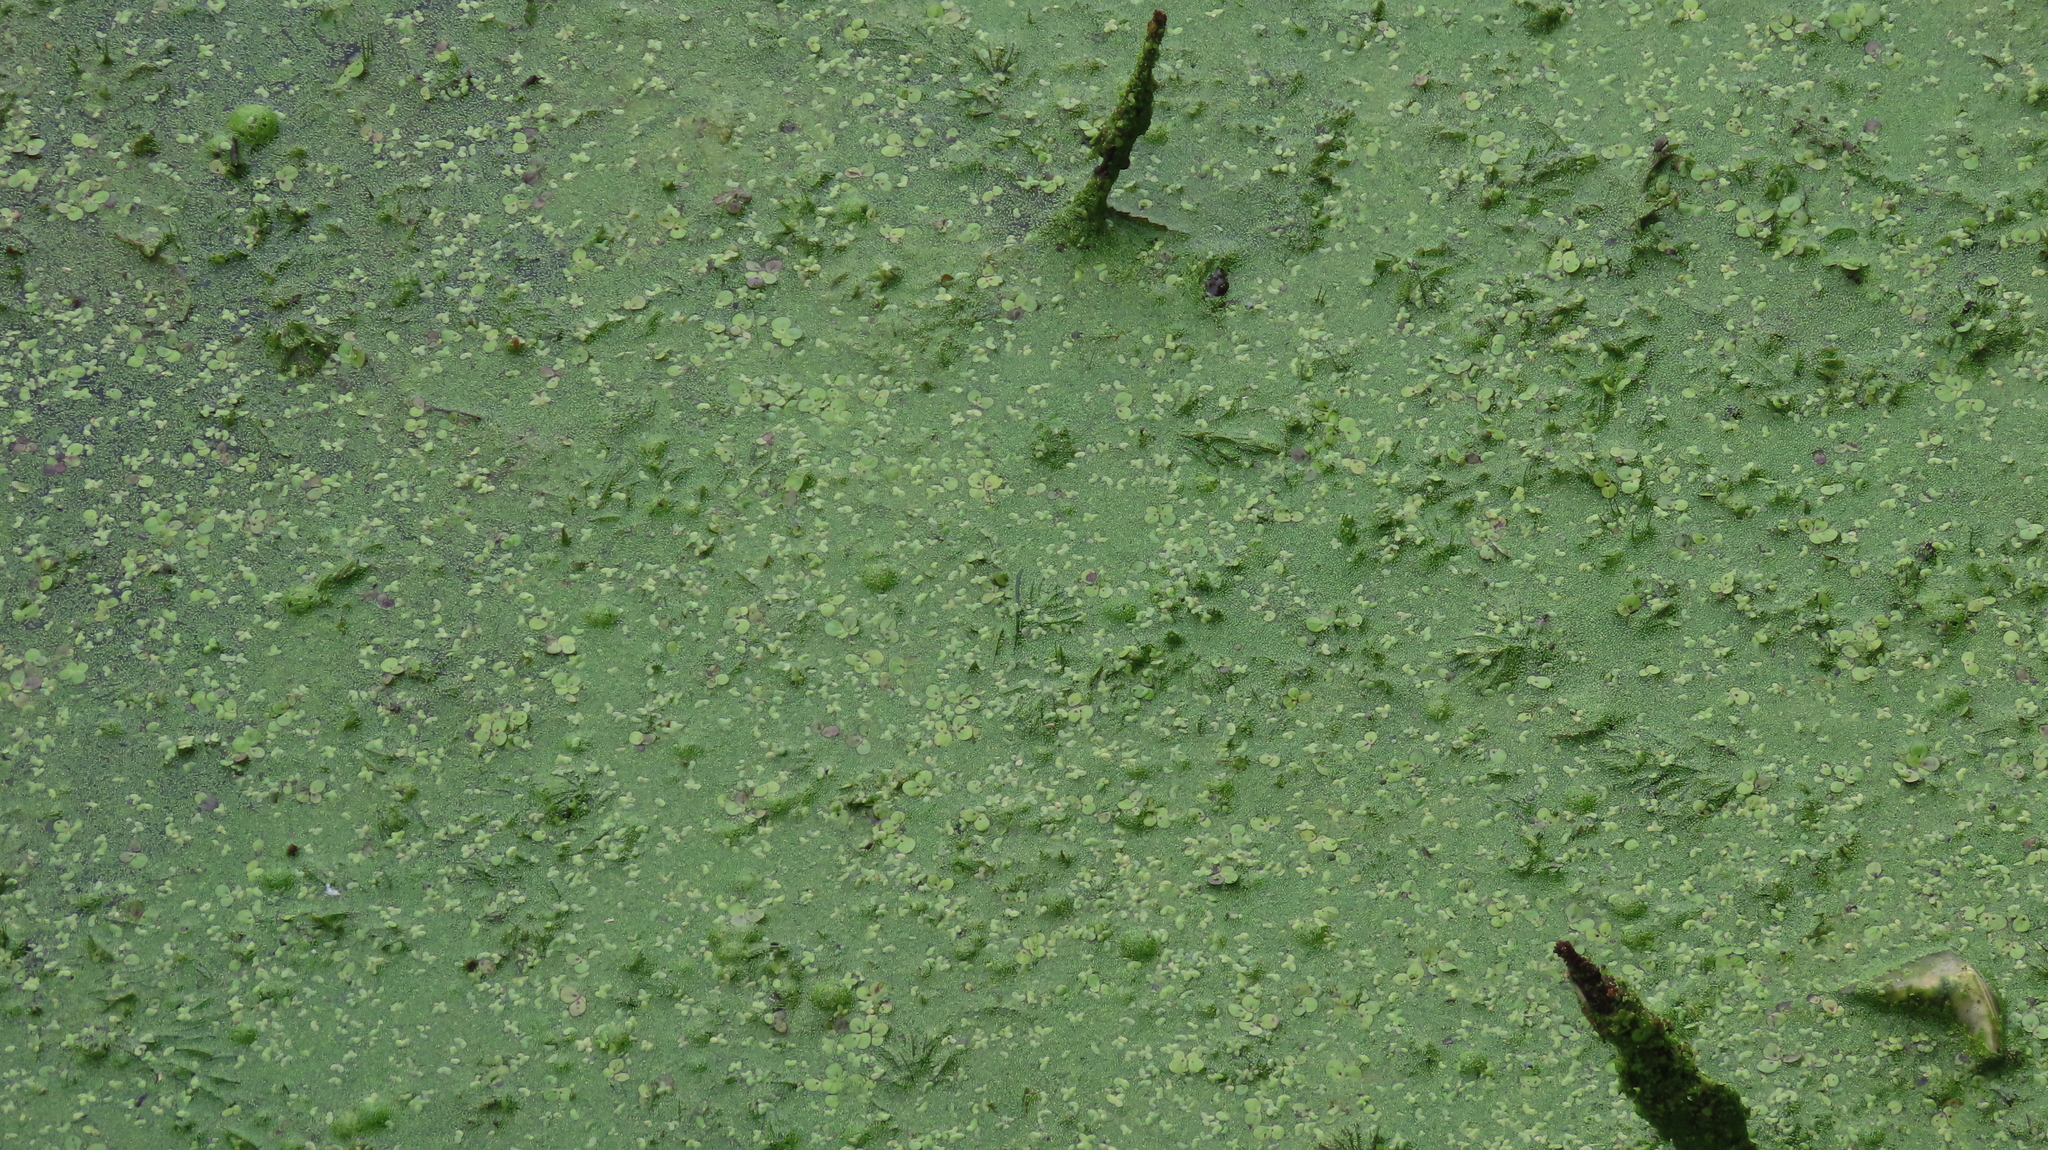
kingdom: Plantae
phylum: Tracheophyta
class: Liliopsida
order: Alismatales
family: Araceae
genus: Spirodela
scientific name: Spirodela polyrhiza
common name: Great duckweed
